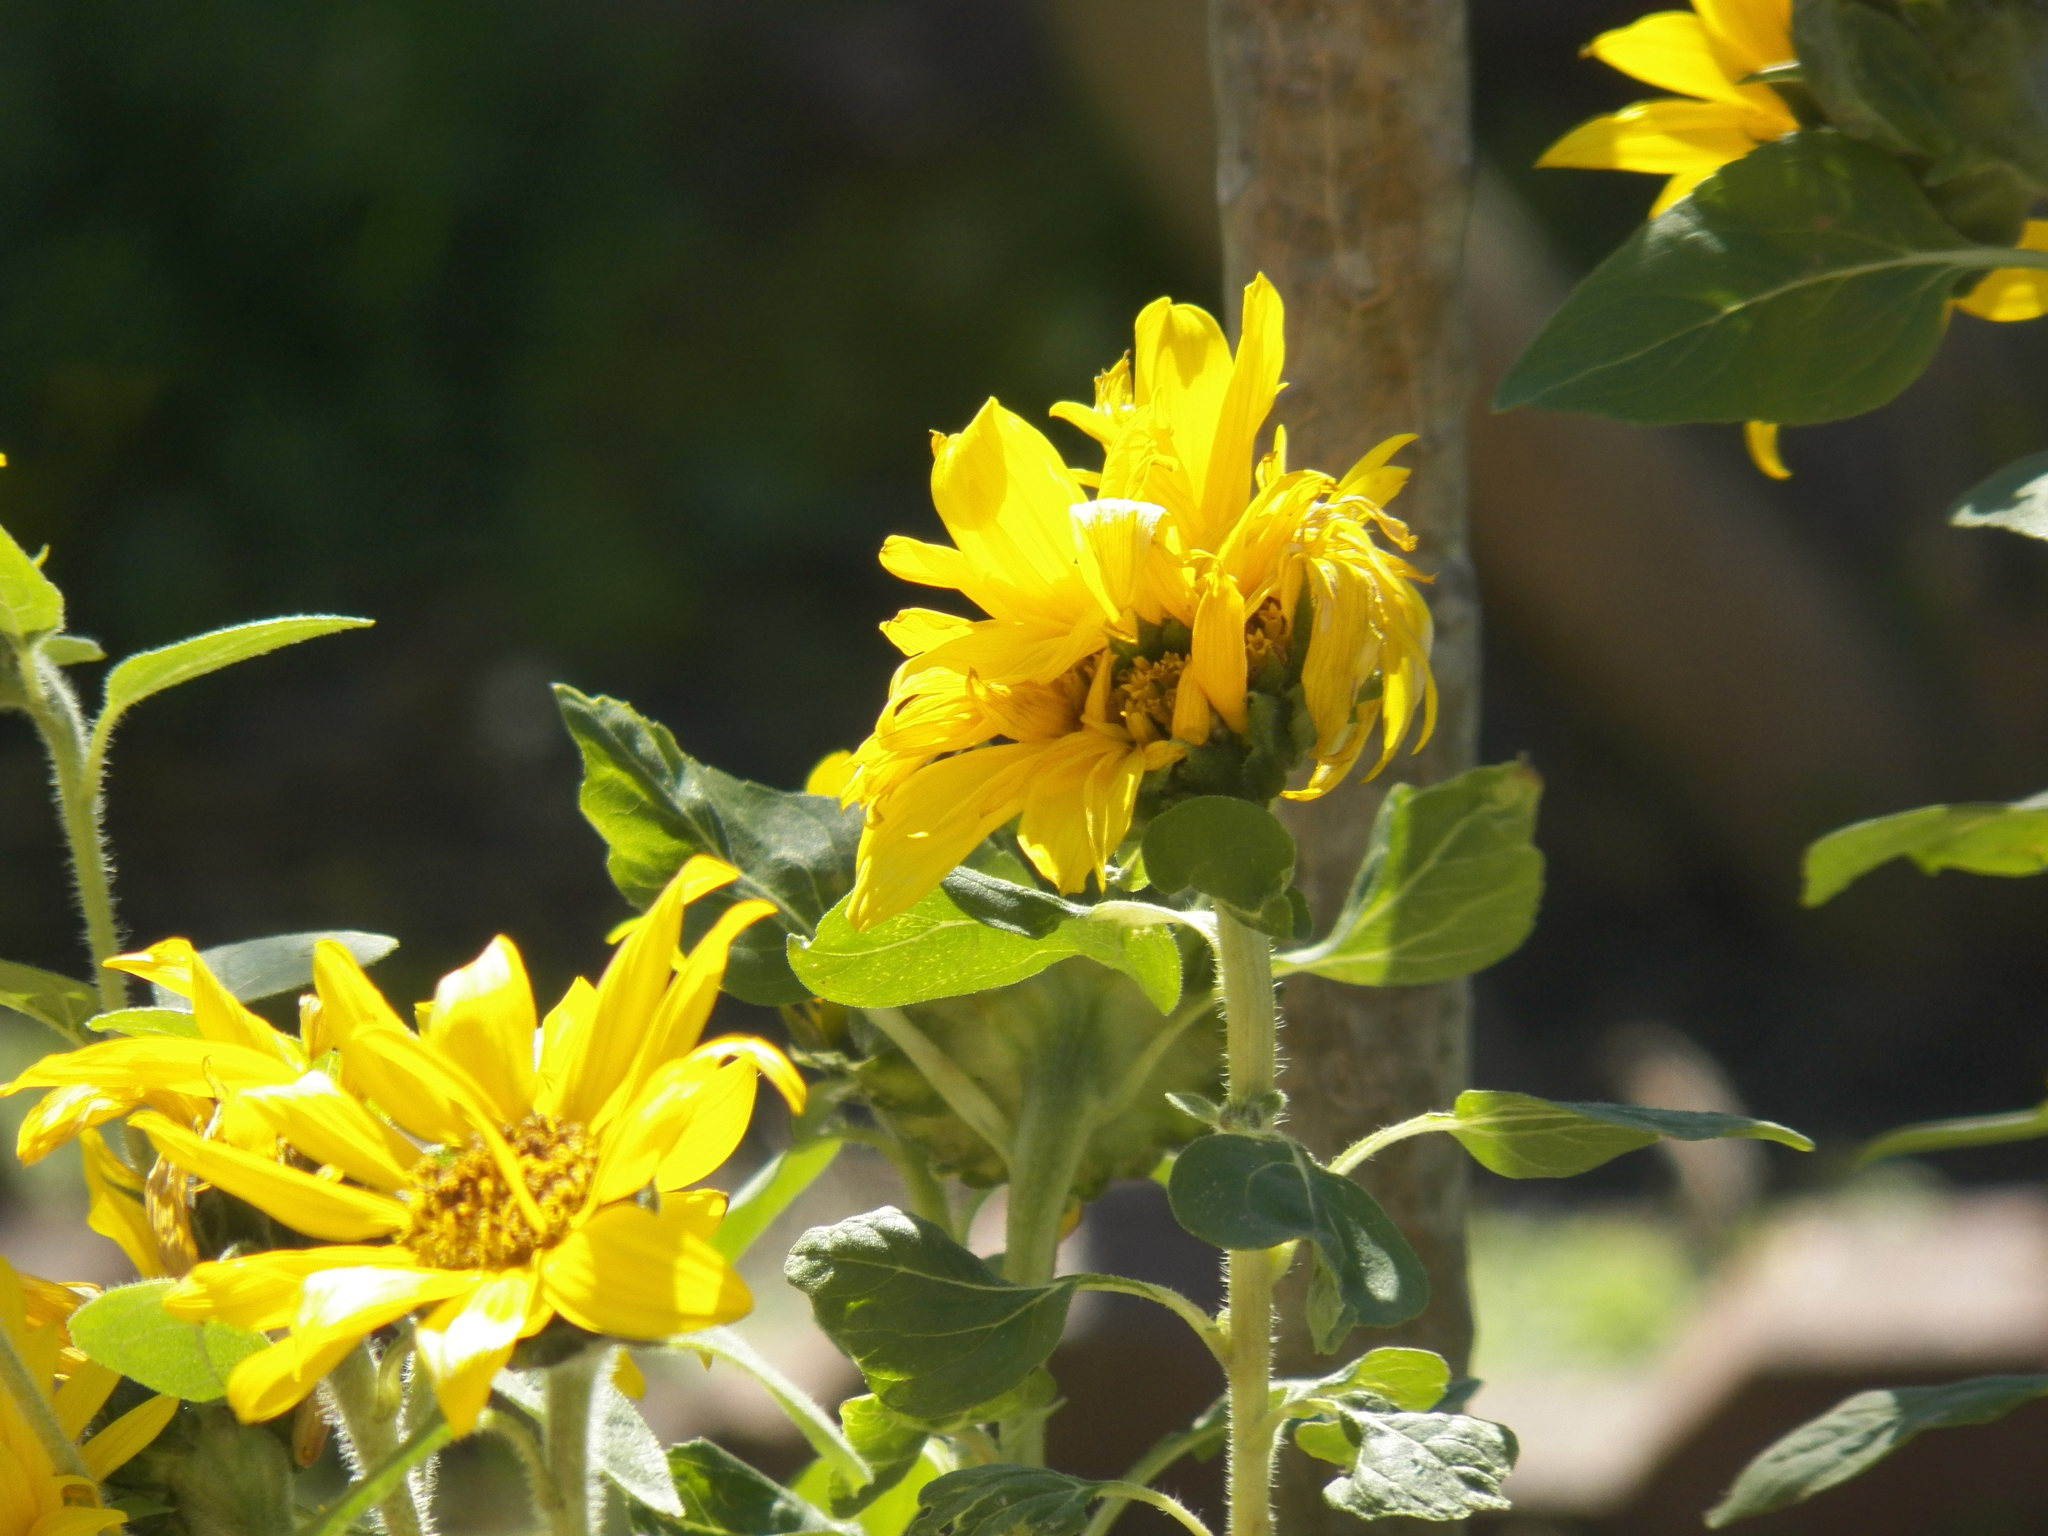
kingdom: Plantae
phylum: Tracheophyta
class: Magnoliopsida
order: Asterales
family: Asteraceae
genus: Helianthus
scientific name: Helianthus annuus
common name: Sunflower
